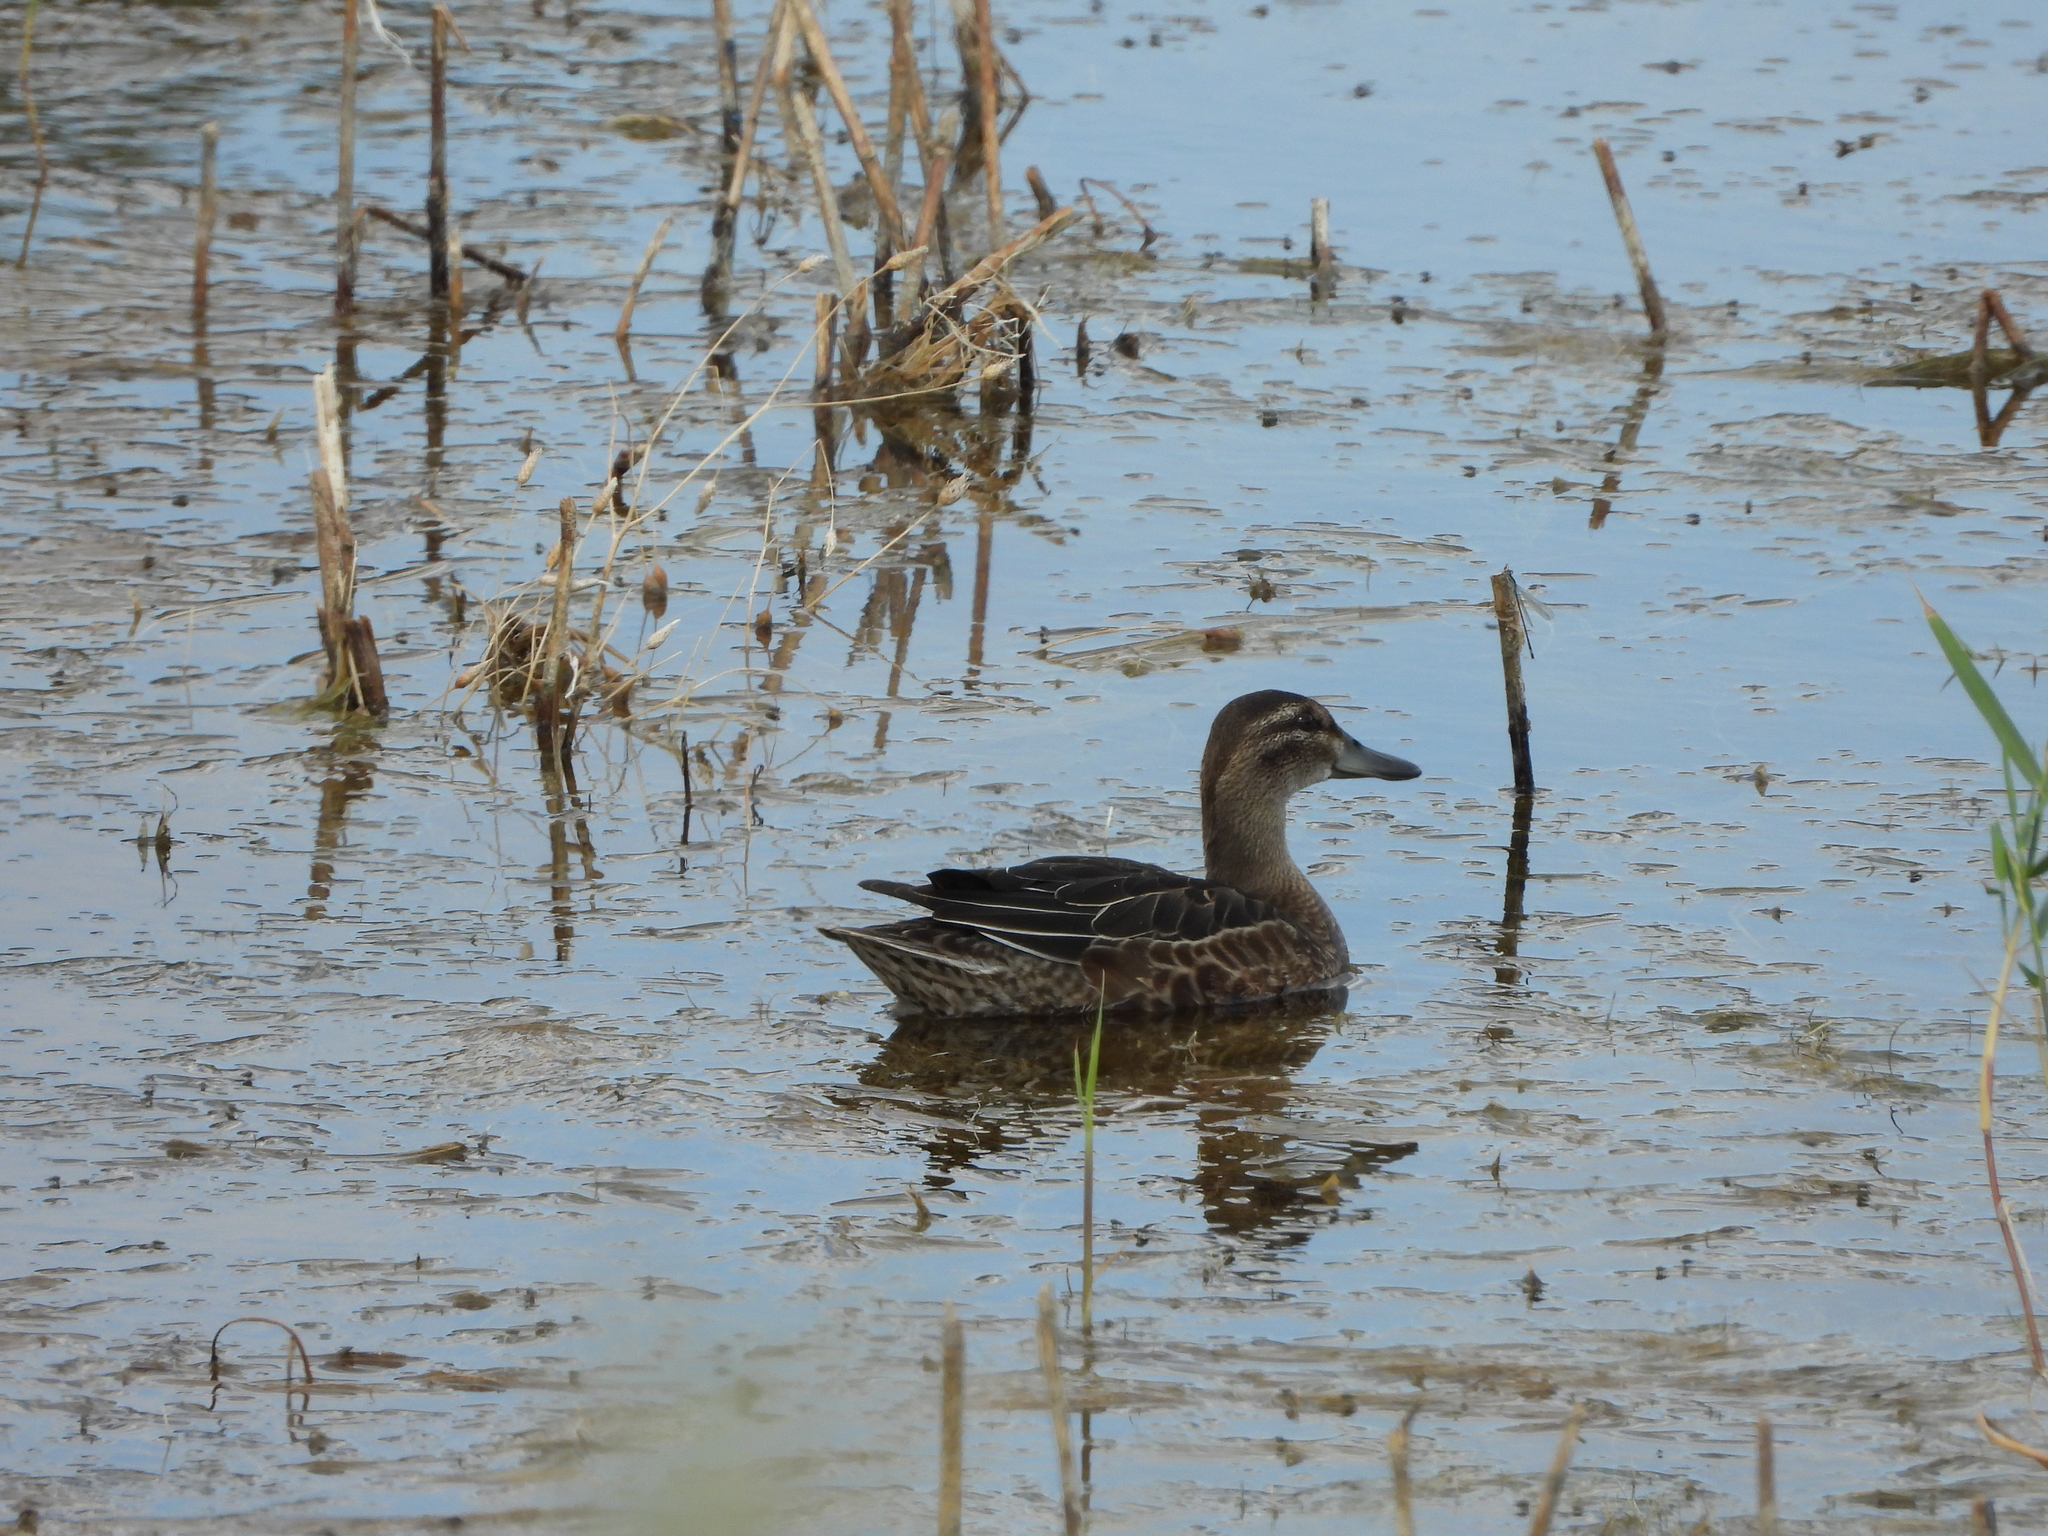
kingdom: Animalia
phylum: Chordata
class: Aves
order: Anseriformes
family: Anatidae
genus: Spatula
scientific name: Spatula querquedula
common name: Garganey
